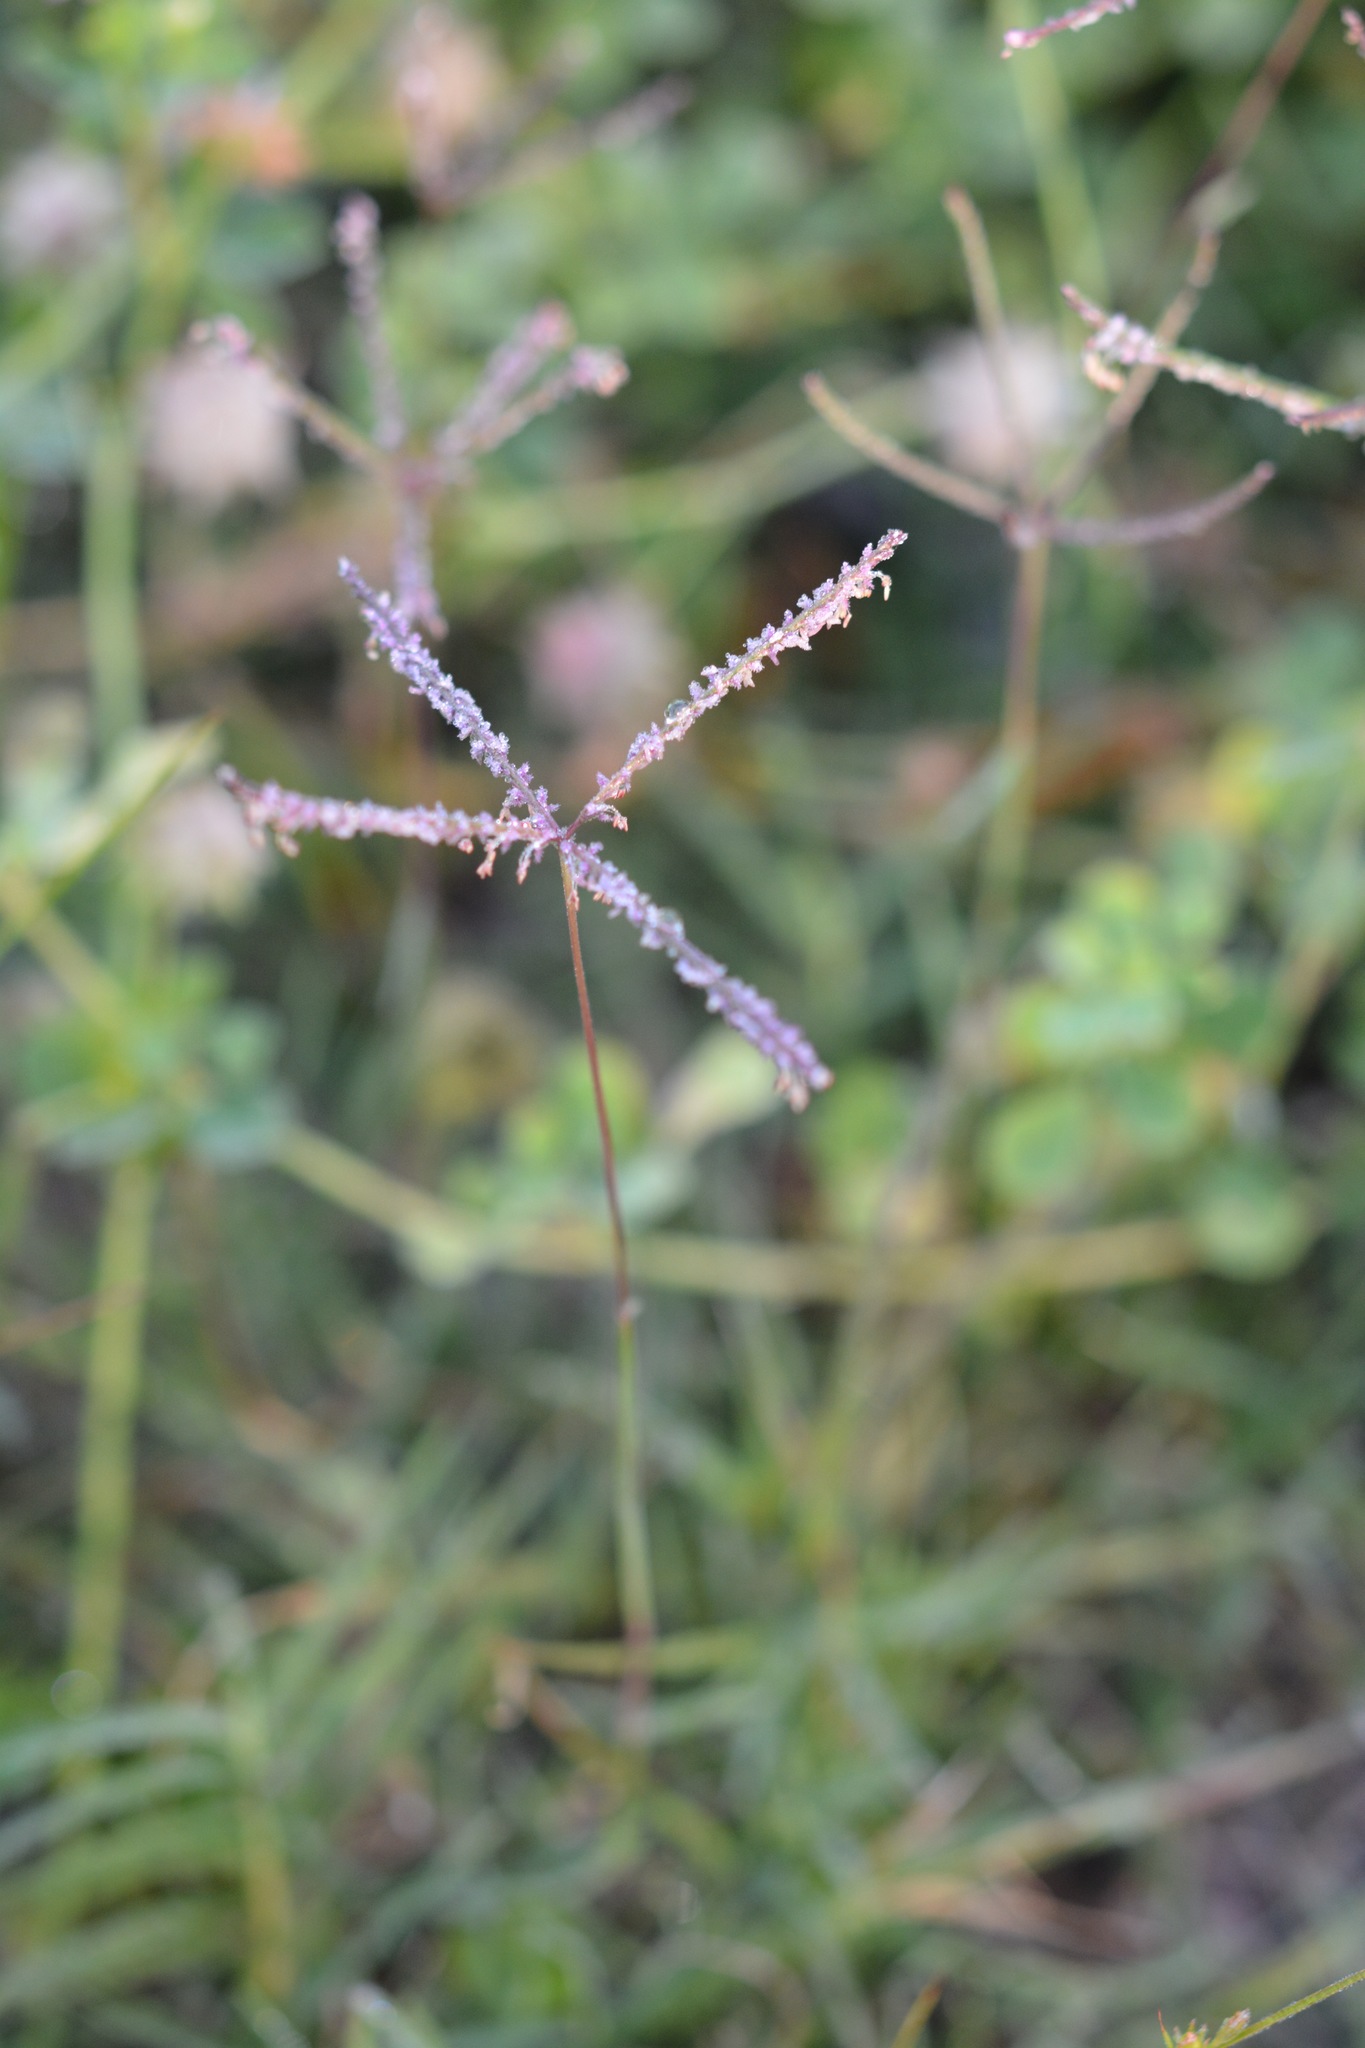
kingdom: Plantae
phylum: Tracheophyta
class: Liliopsida
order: Poales
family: Poaceae
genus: Cynodon
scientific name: Cynodon dactylon
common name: Bermuda grass
